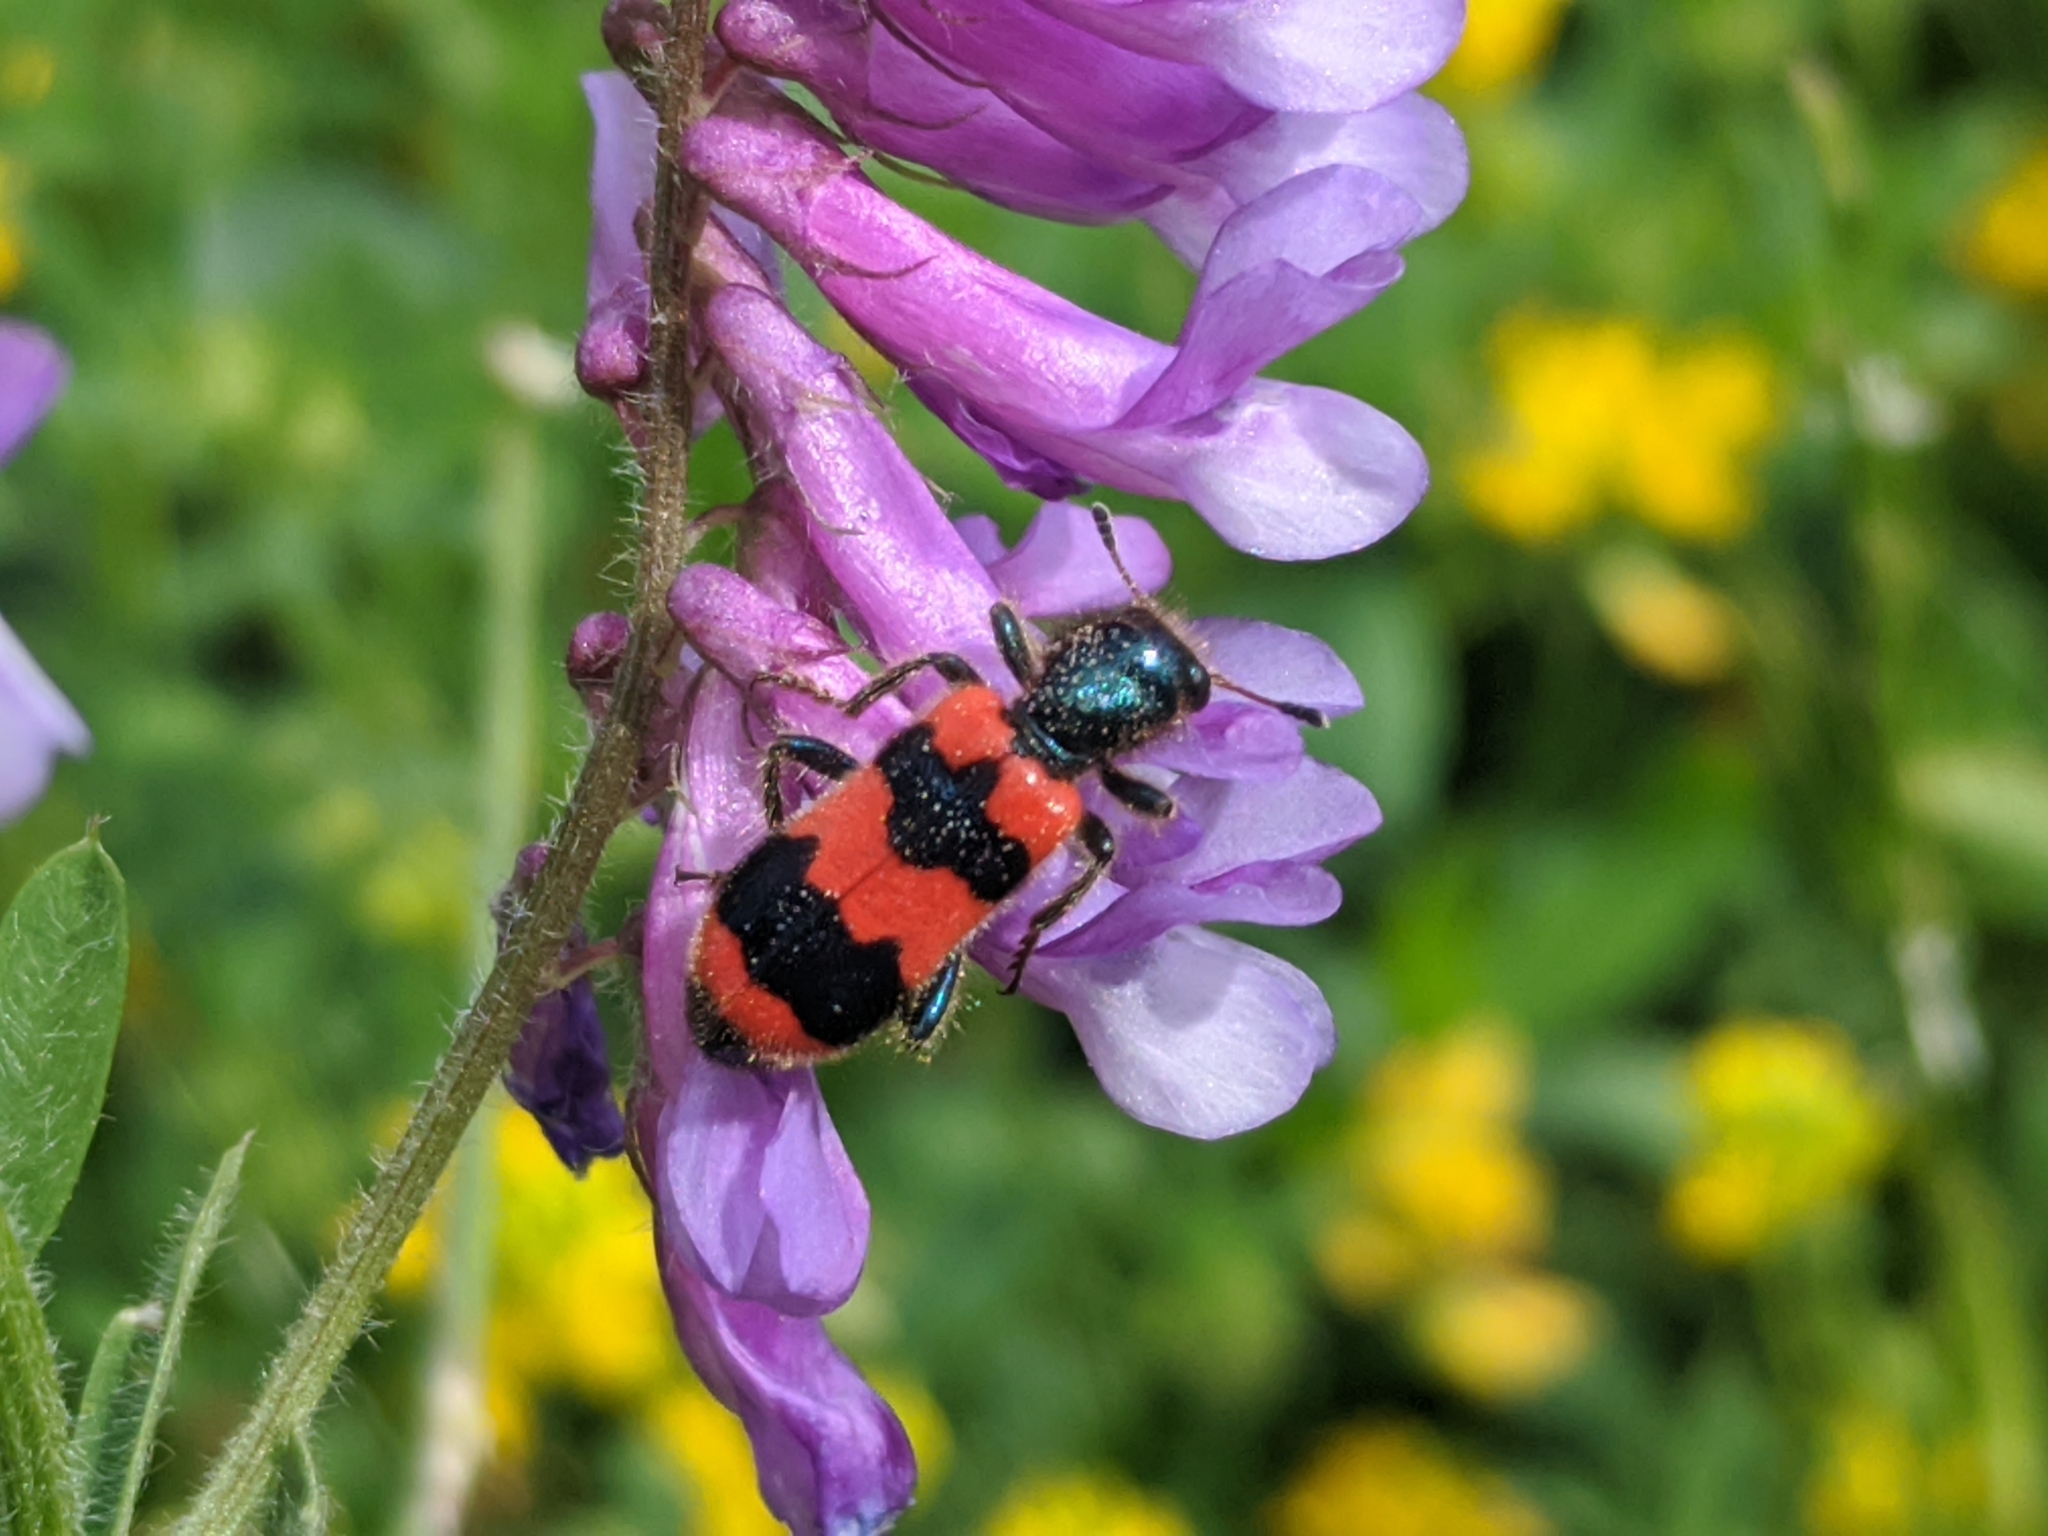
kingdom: Animalia
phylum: Arthropoda
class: Insecta
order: Coleoptera
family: Cleridae
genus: Trichodes
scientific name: Trichodes apiarius
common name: Bee-eating beetle
